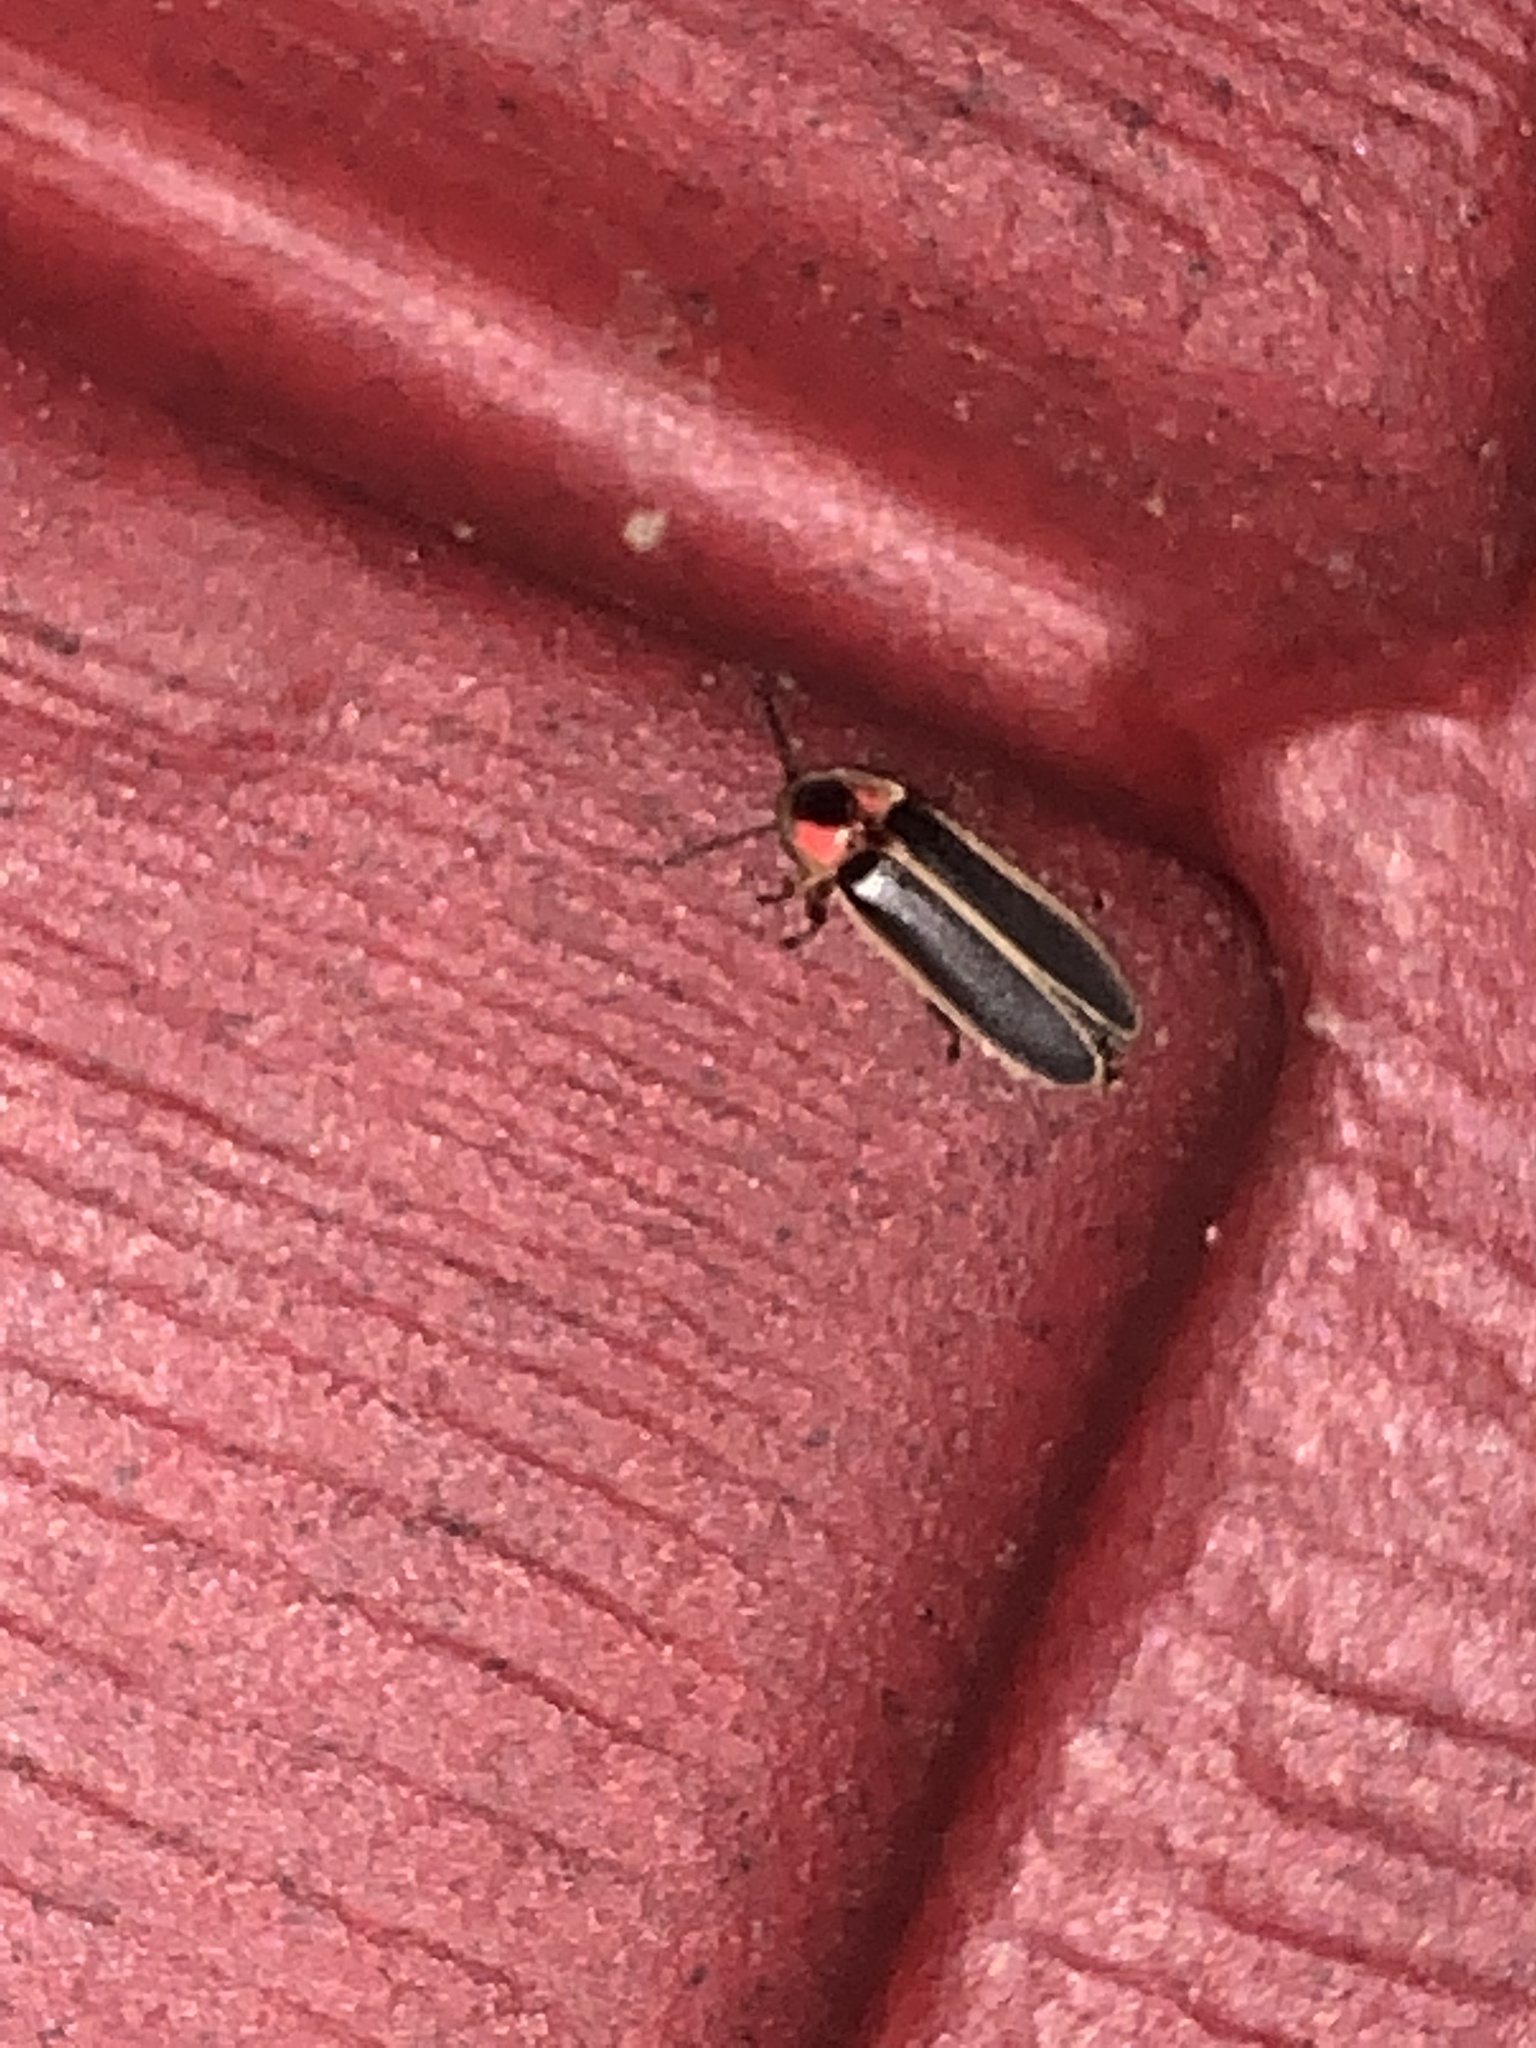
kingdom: Animalia
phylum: Arthropoda
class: Insecta
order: Coleoptera
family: Lampyridae
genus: Photinus
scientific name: Photinus pyralis
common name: Big dipper firefly
